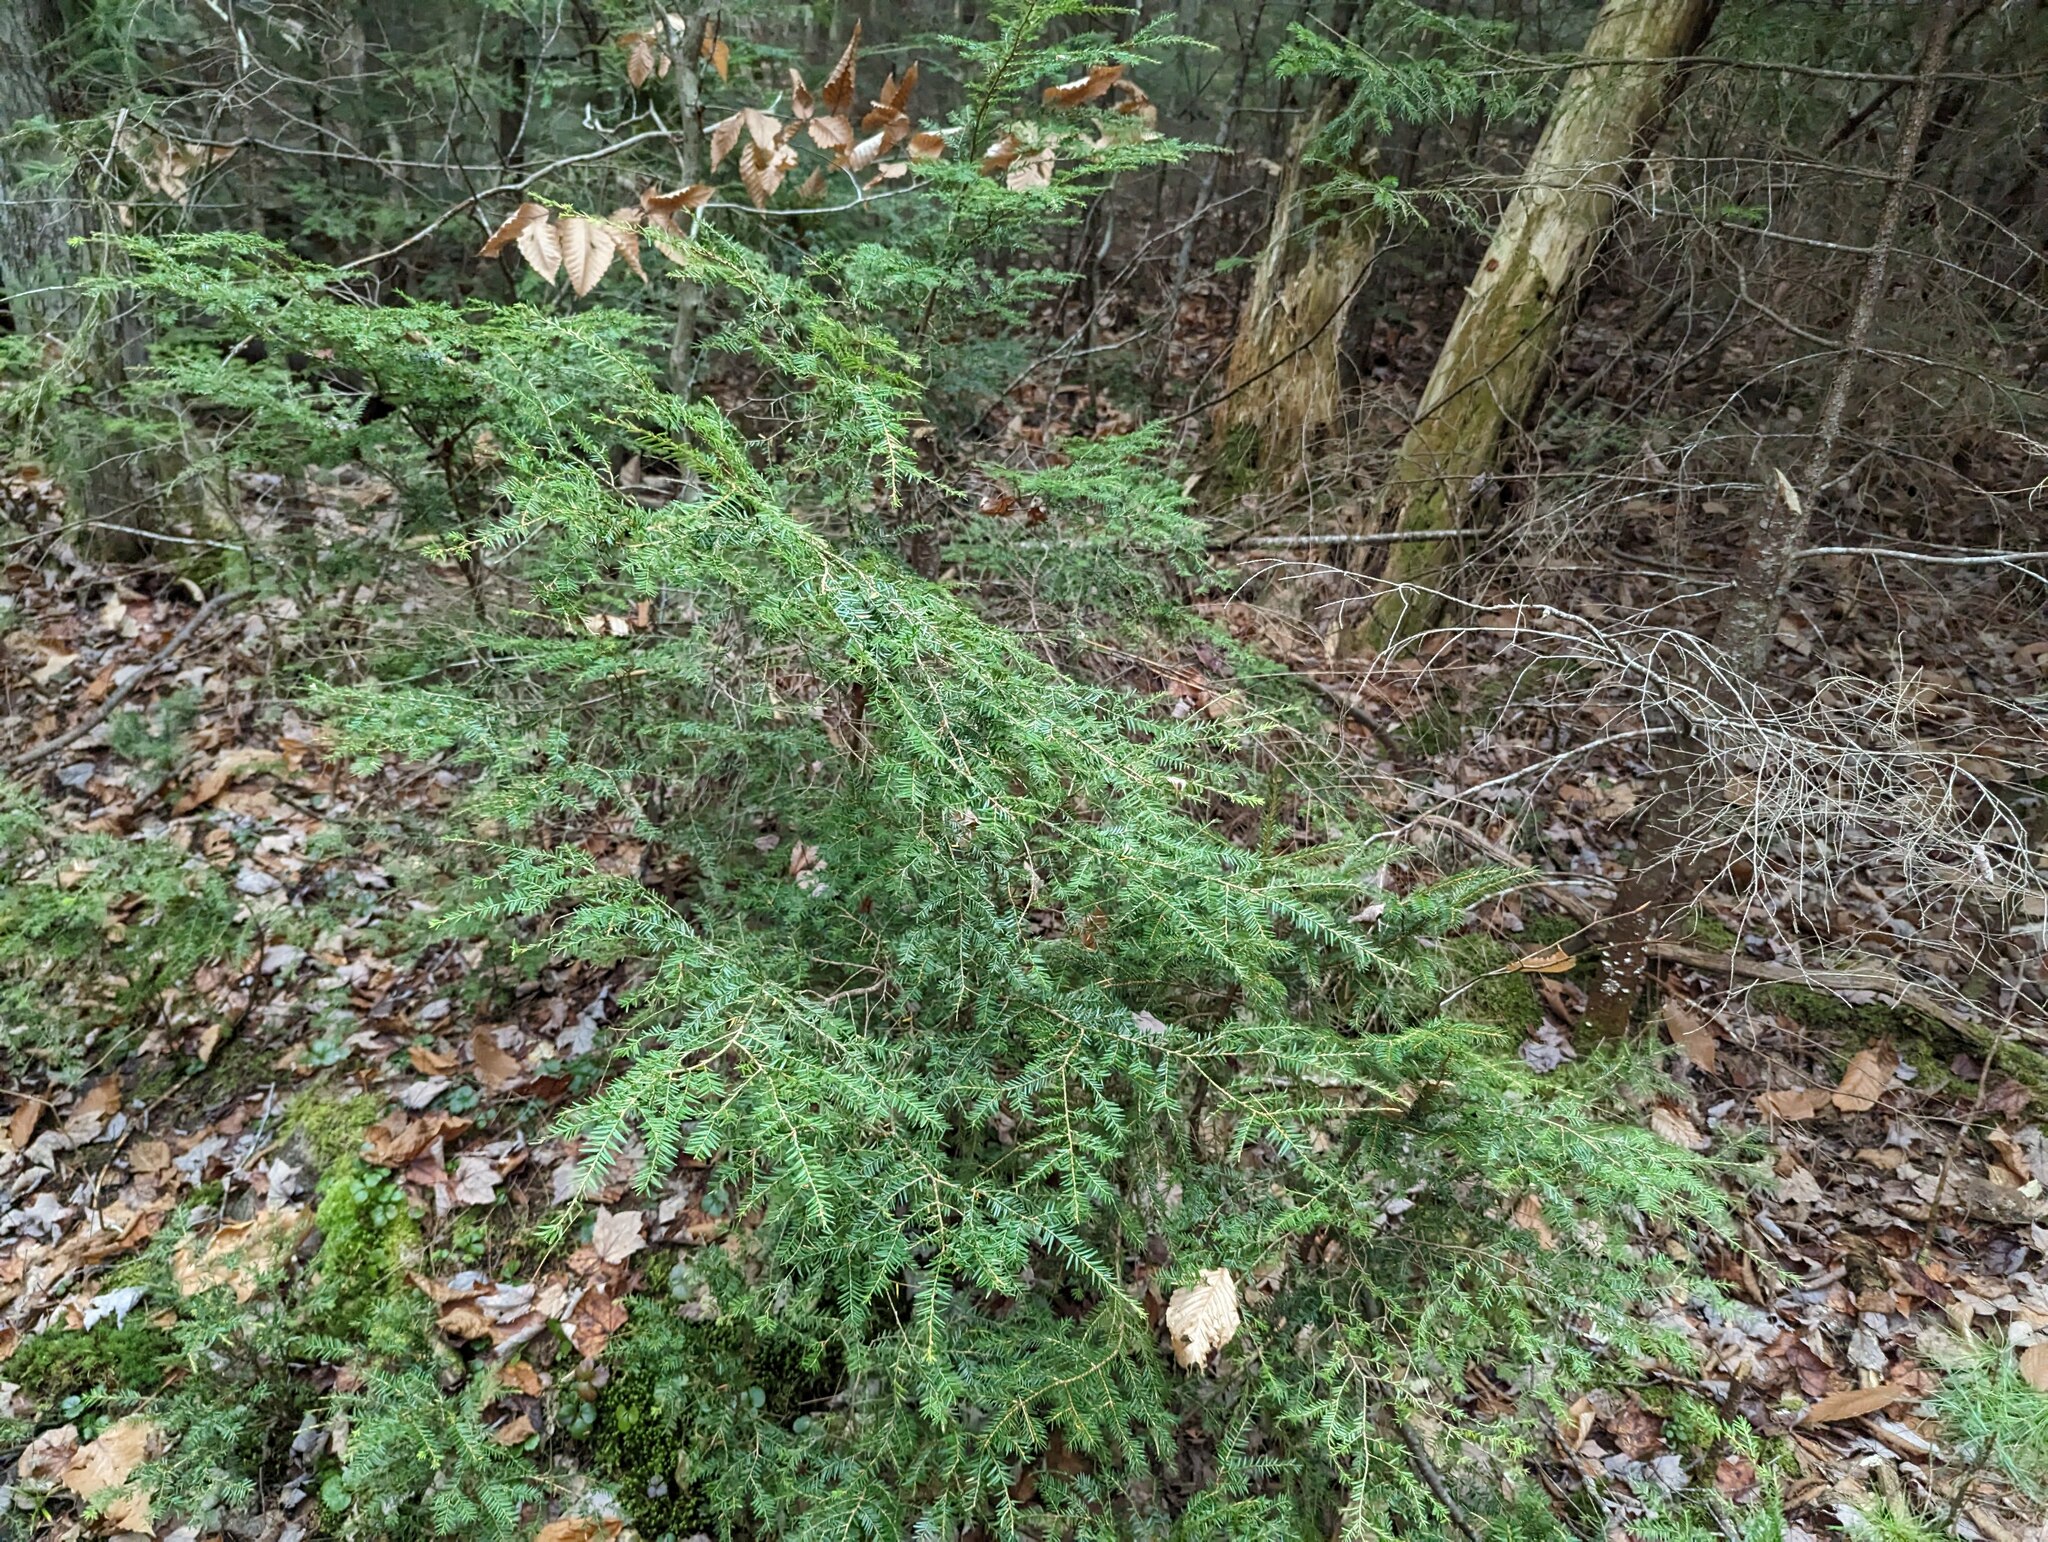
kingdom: Plantae
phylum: Tracheophyta
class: Pinopsida
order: Pinales
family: Pinaceae
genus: Tsuga
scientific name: Tsuga canadensis
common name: Eastern hemlock
